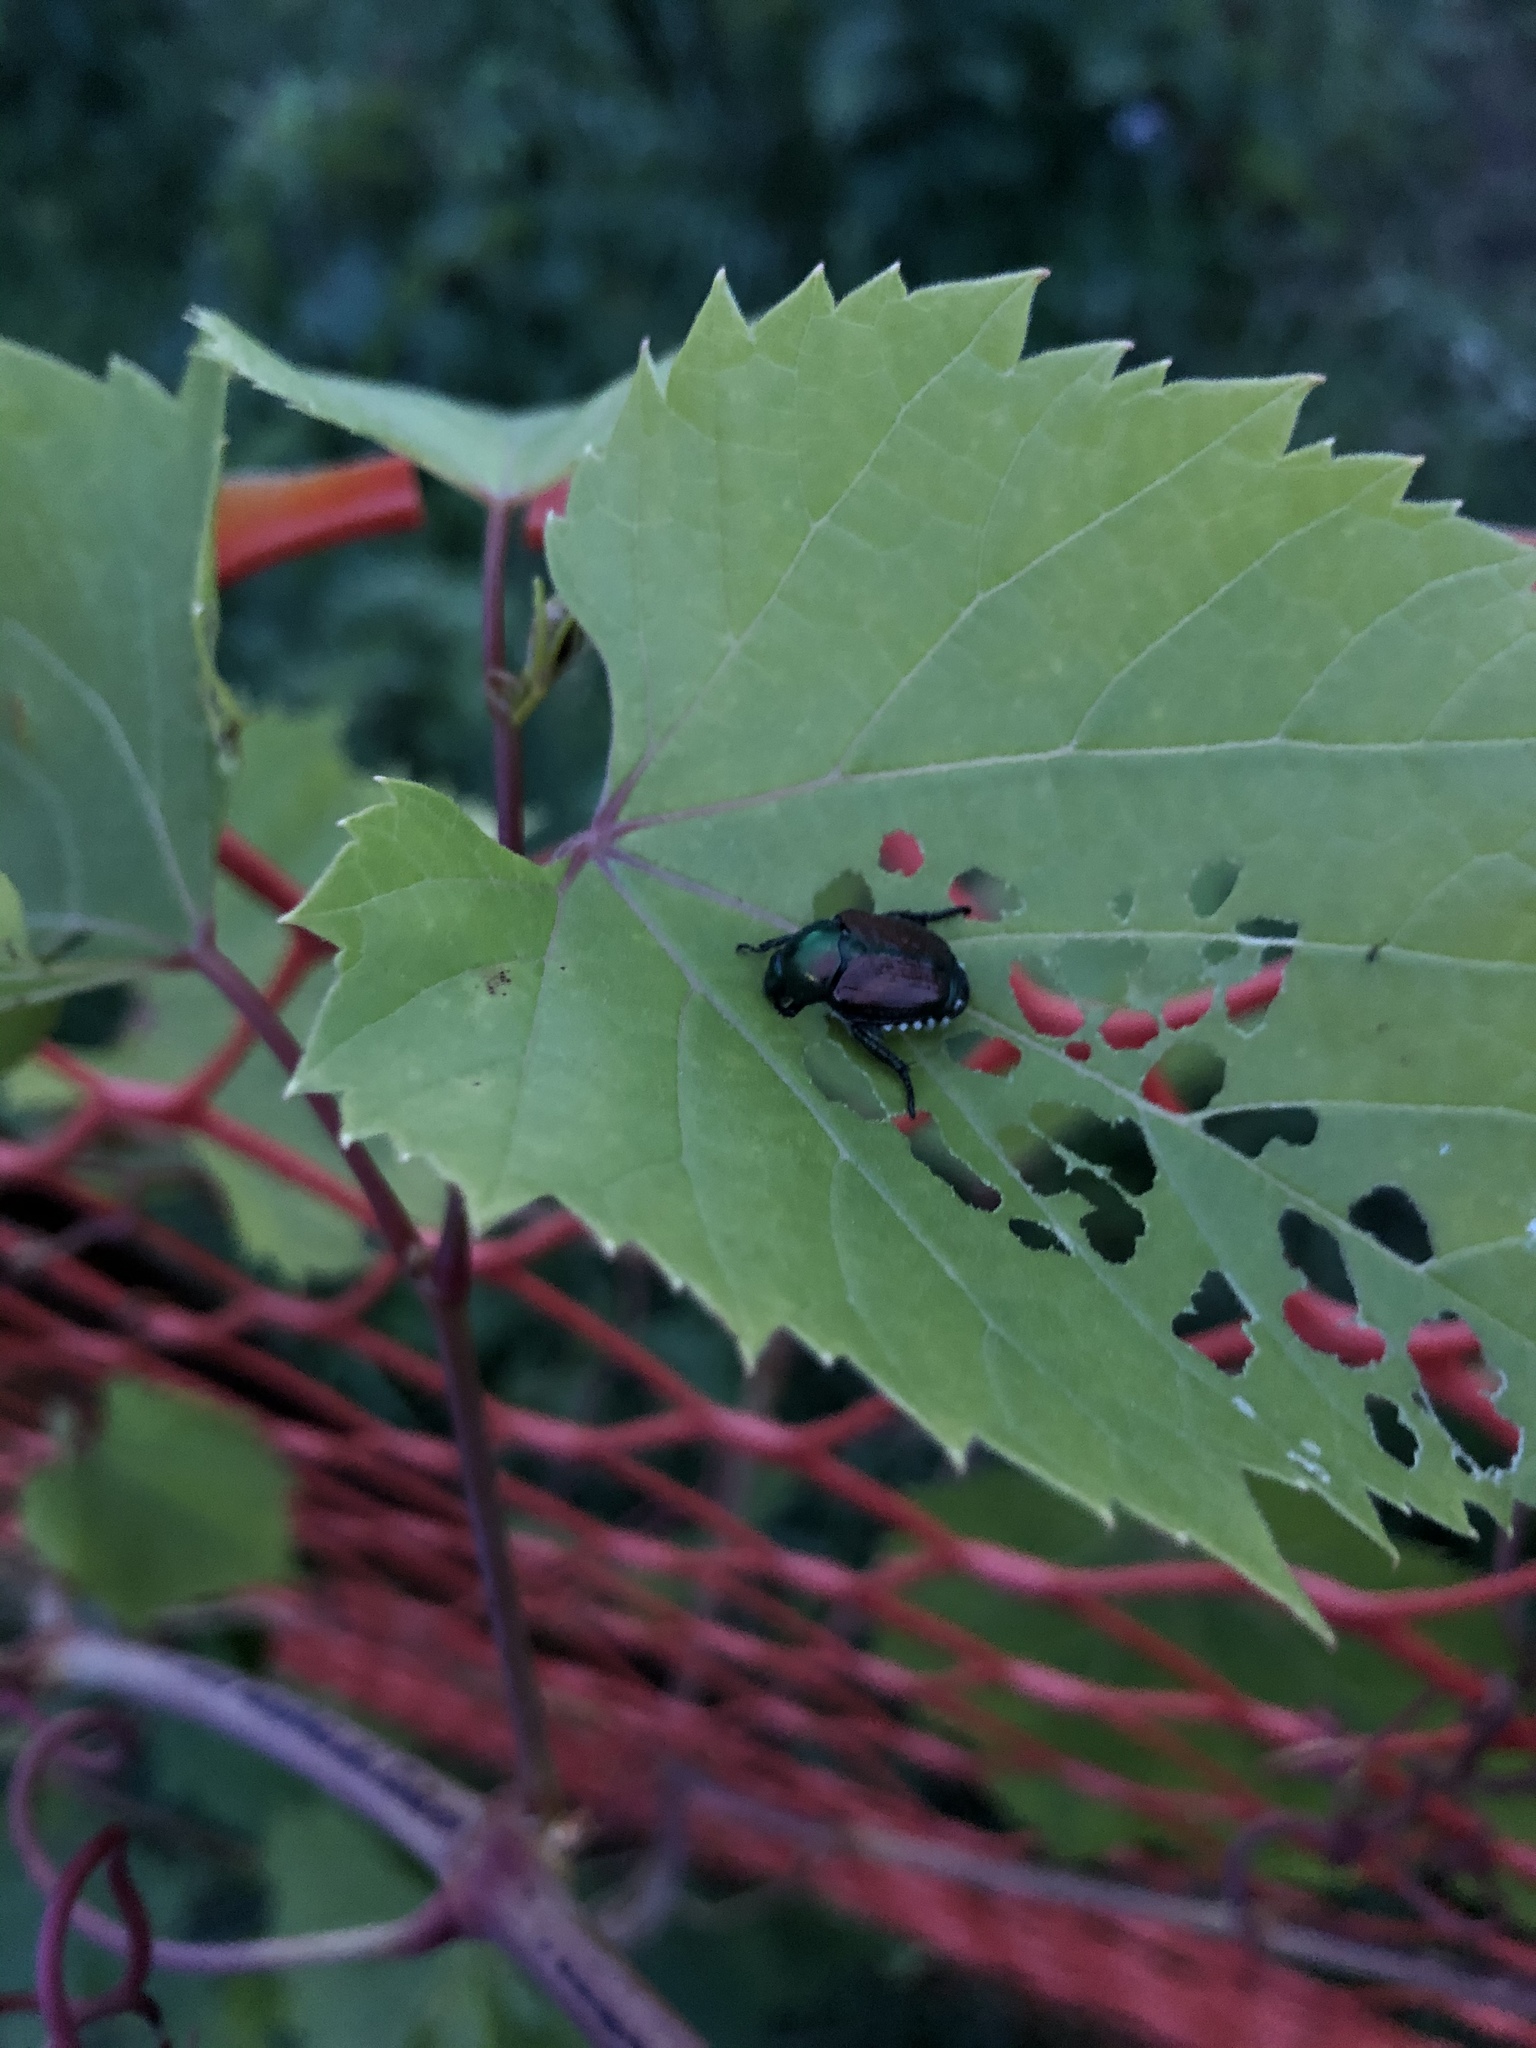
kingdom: Animalia
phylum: Arthropoda
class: Insecta
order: Coleoptera
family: Scarabaeidae
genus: Popillia
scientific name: Popillia japonica
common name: Japanese beetle
